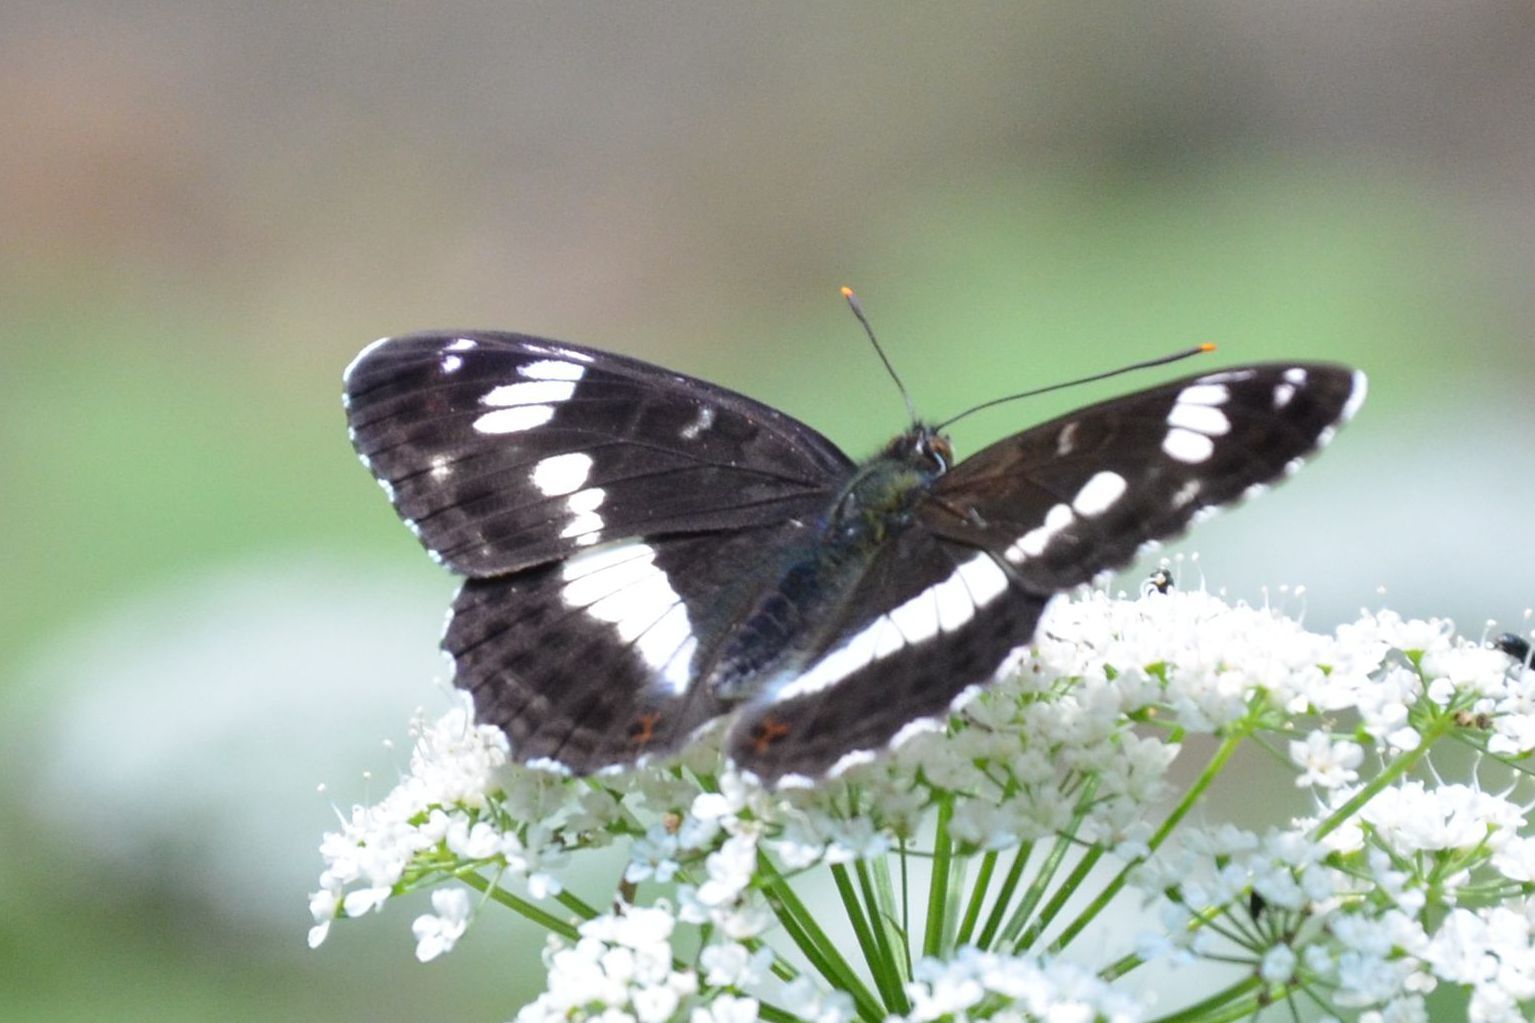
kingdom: Animalia
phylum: Arthropoda
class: Insecta
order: Lepidoptera
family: Nymphalidae
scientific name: Nymphalidae
